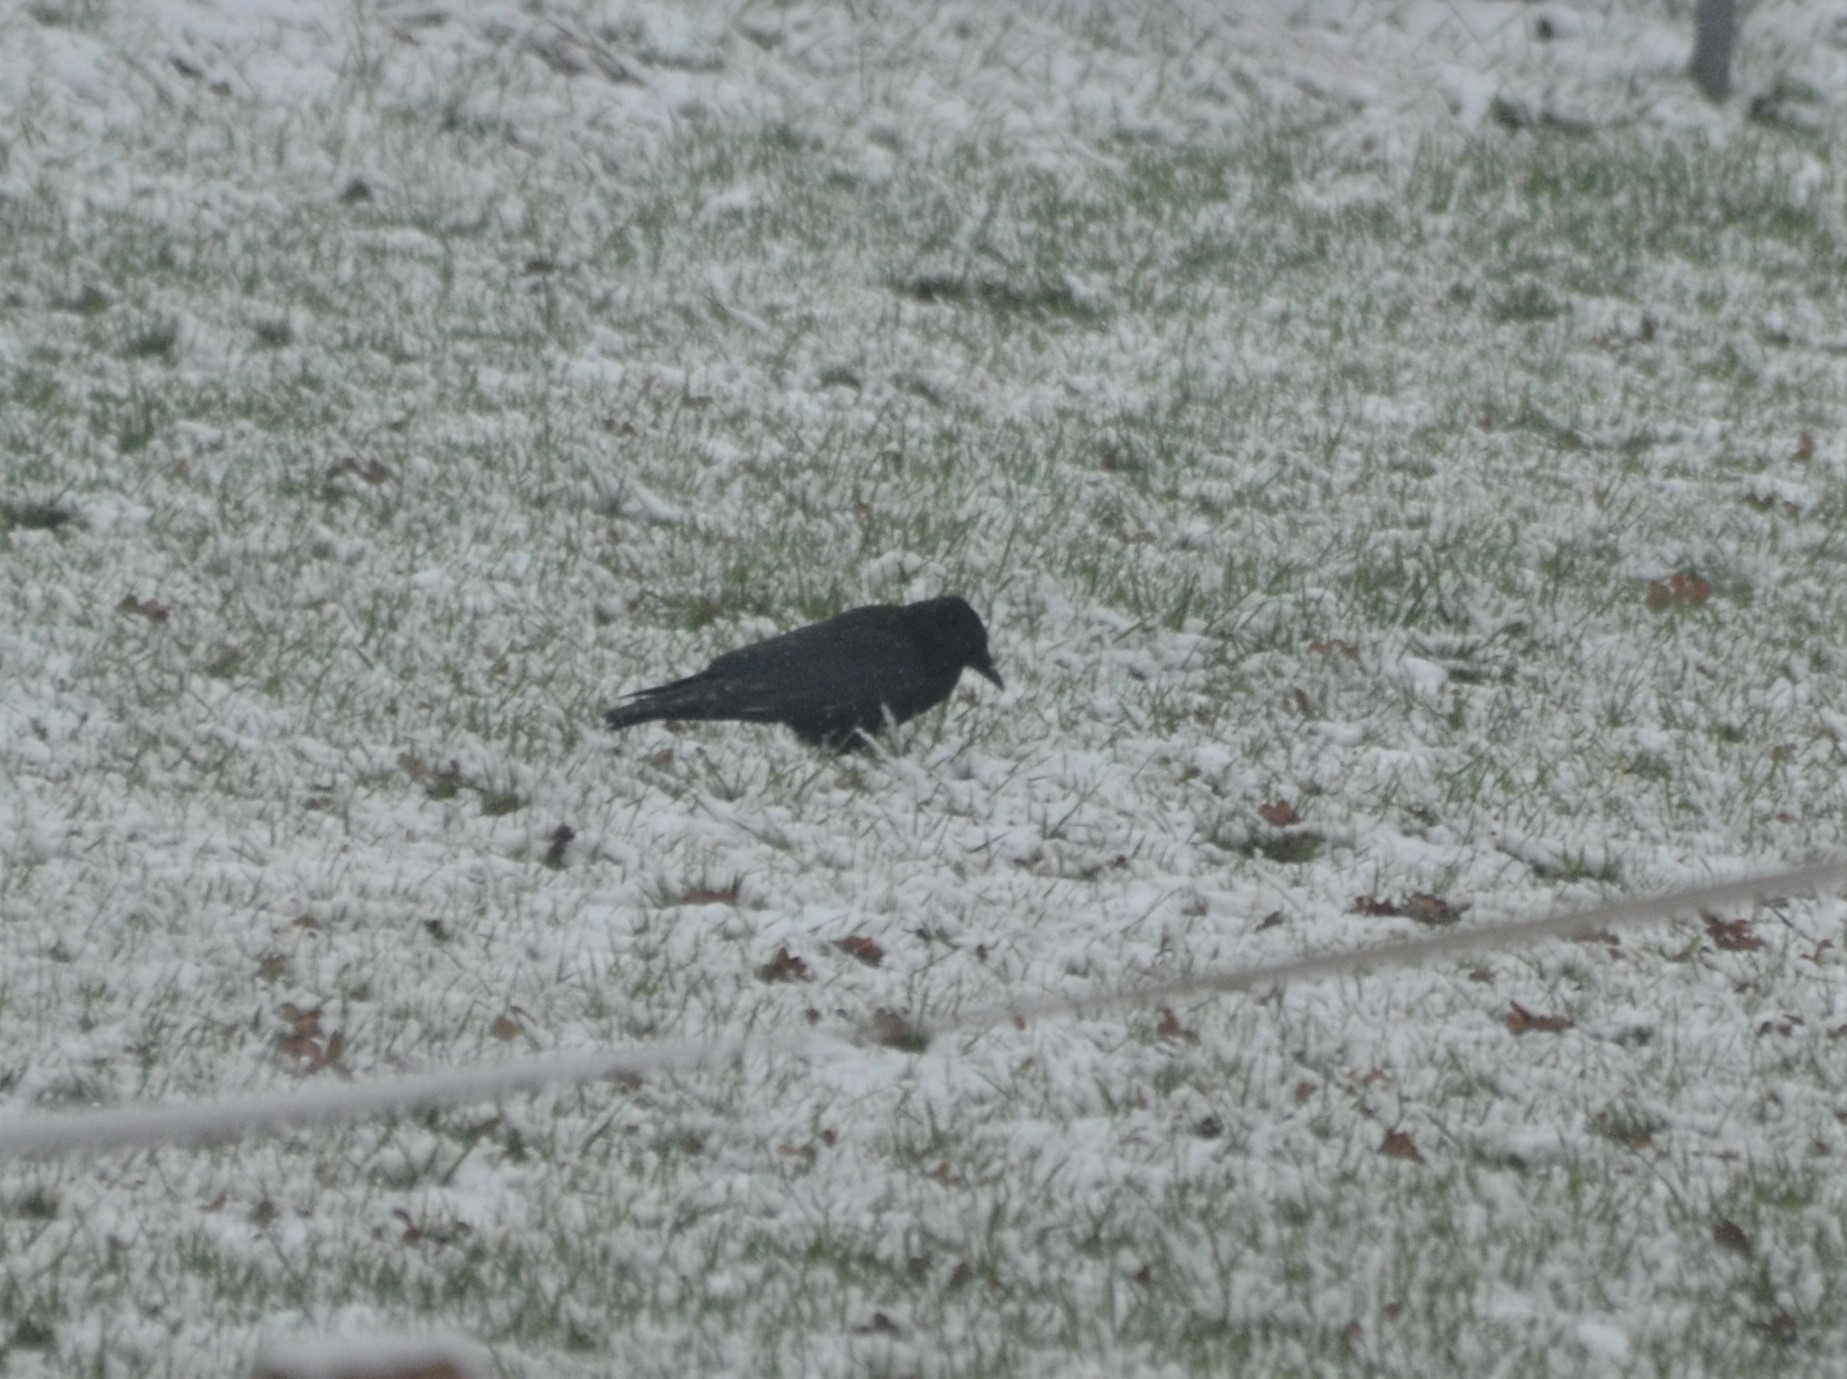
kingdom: Animalia
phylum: Chordata
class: Aves
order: Passeriformes
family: Corvidae
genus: Corvus
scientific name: Corvus corone
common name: Carrion crow
